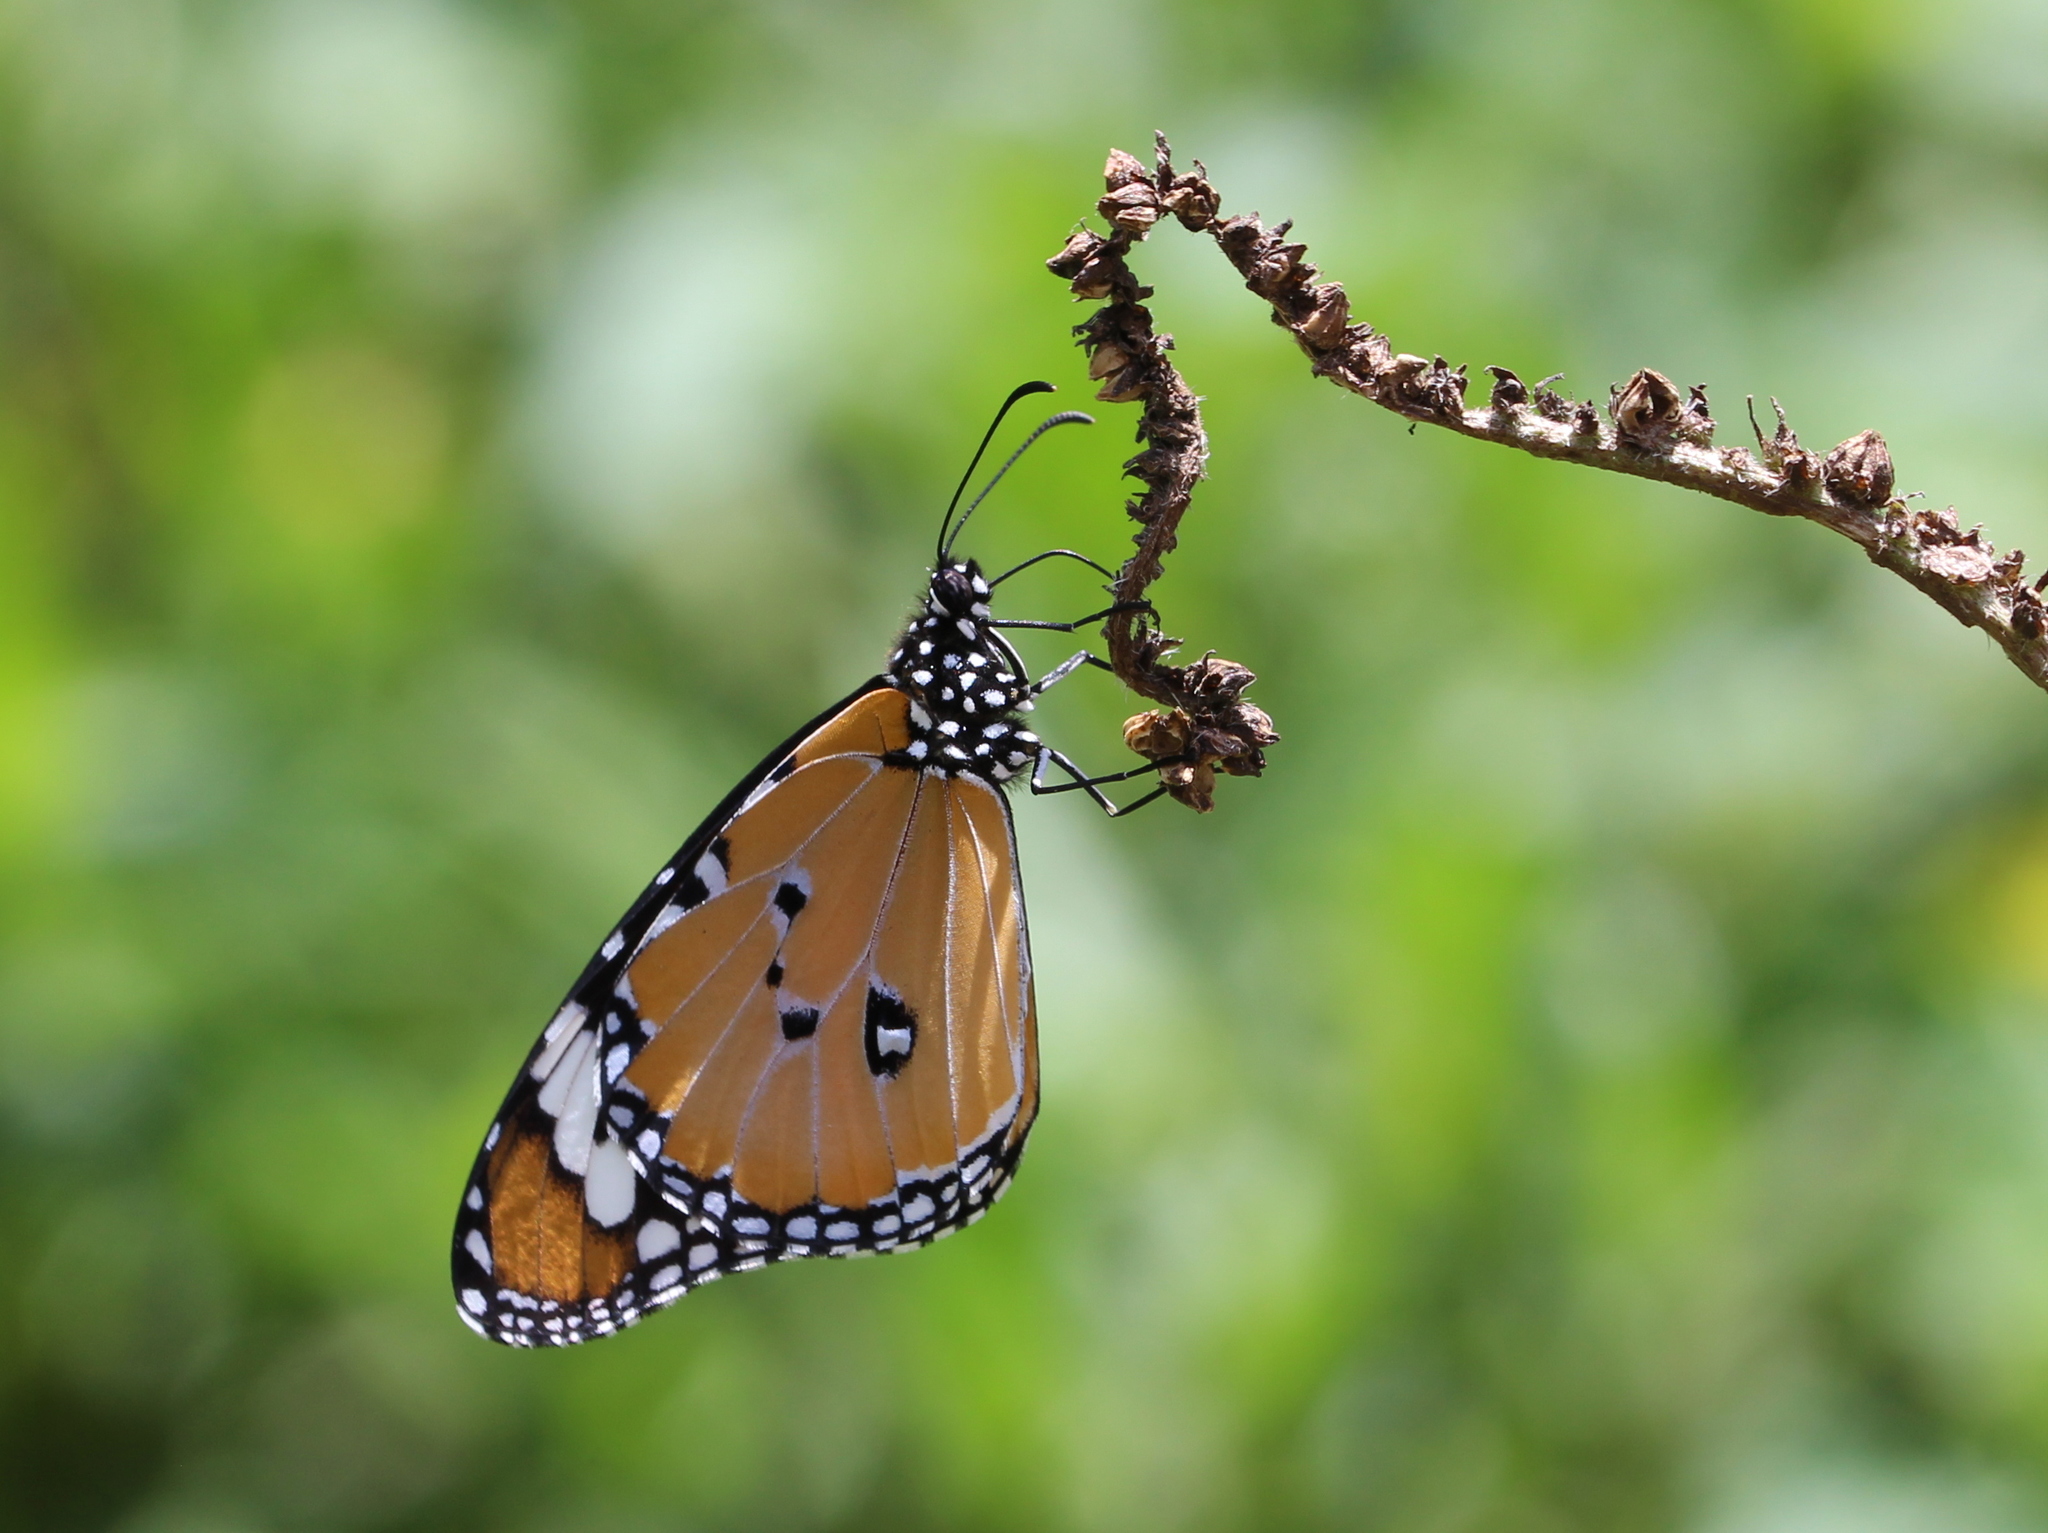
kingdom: Animalia
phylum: Arthropoda
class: Insecta
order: Lepidoptera
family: Nymphalidae
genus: Danaus
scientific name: Danaus chrysippus
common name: Plain tiger
